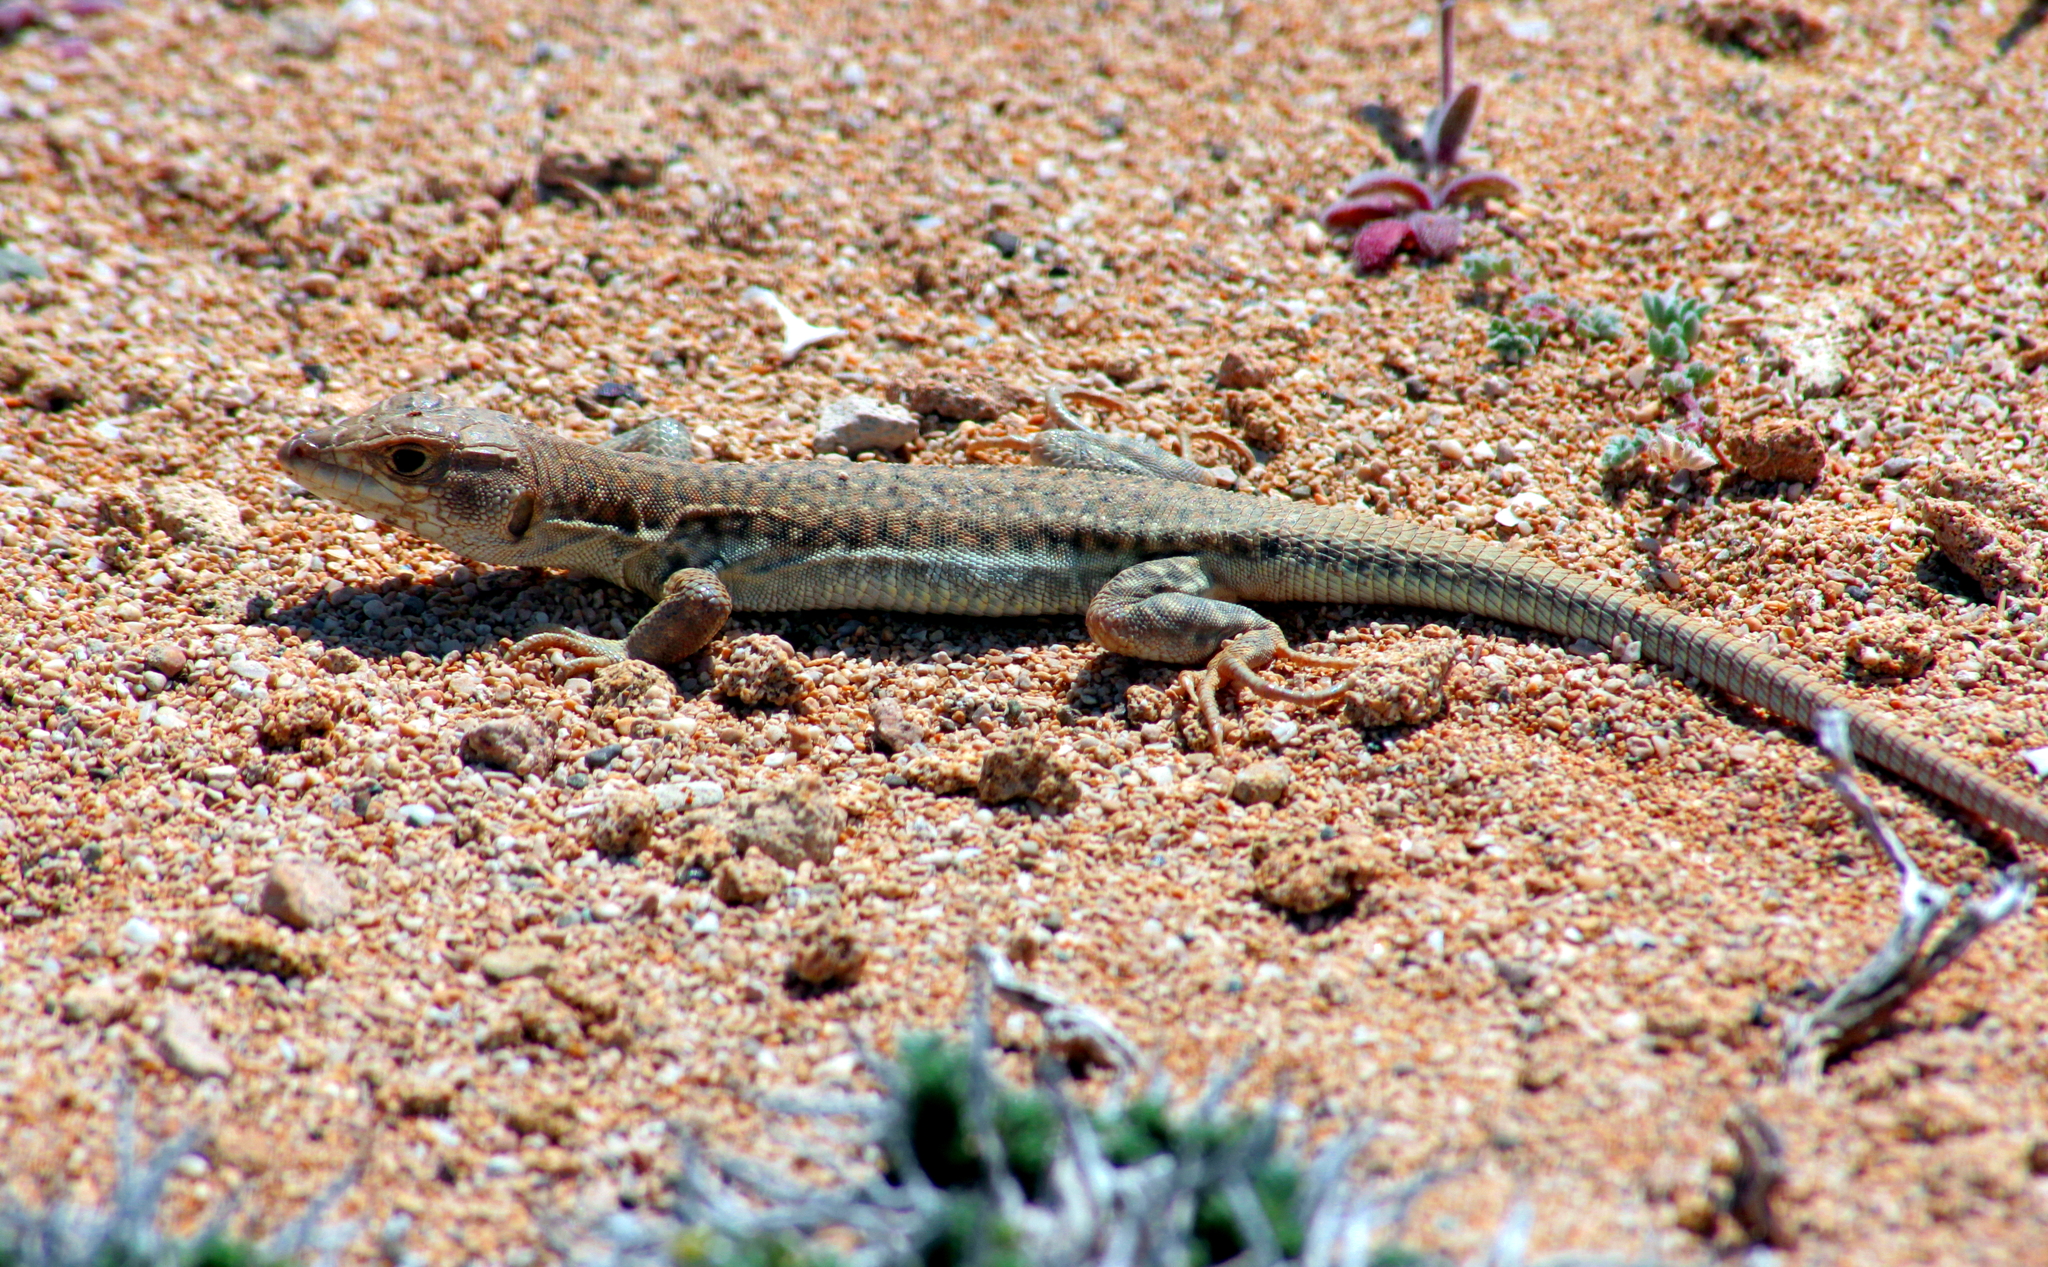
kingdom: Animalia
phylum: Chordata
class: Squamata
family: Lacertidae
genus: Acanthodactylus
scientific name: Acanthodactylus schreiberi
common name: Schreiber's fringe-fingered lizard
